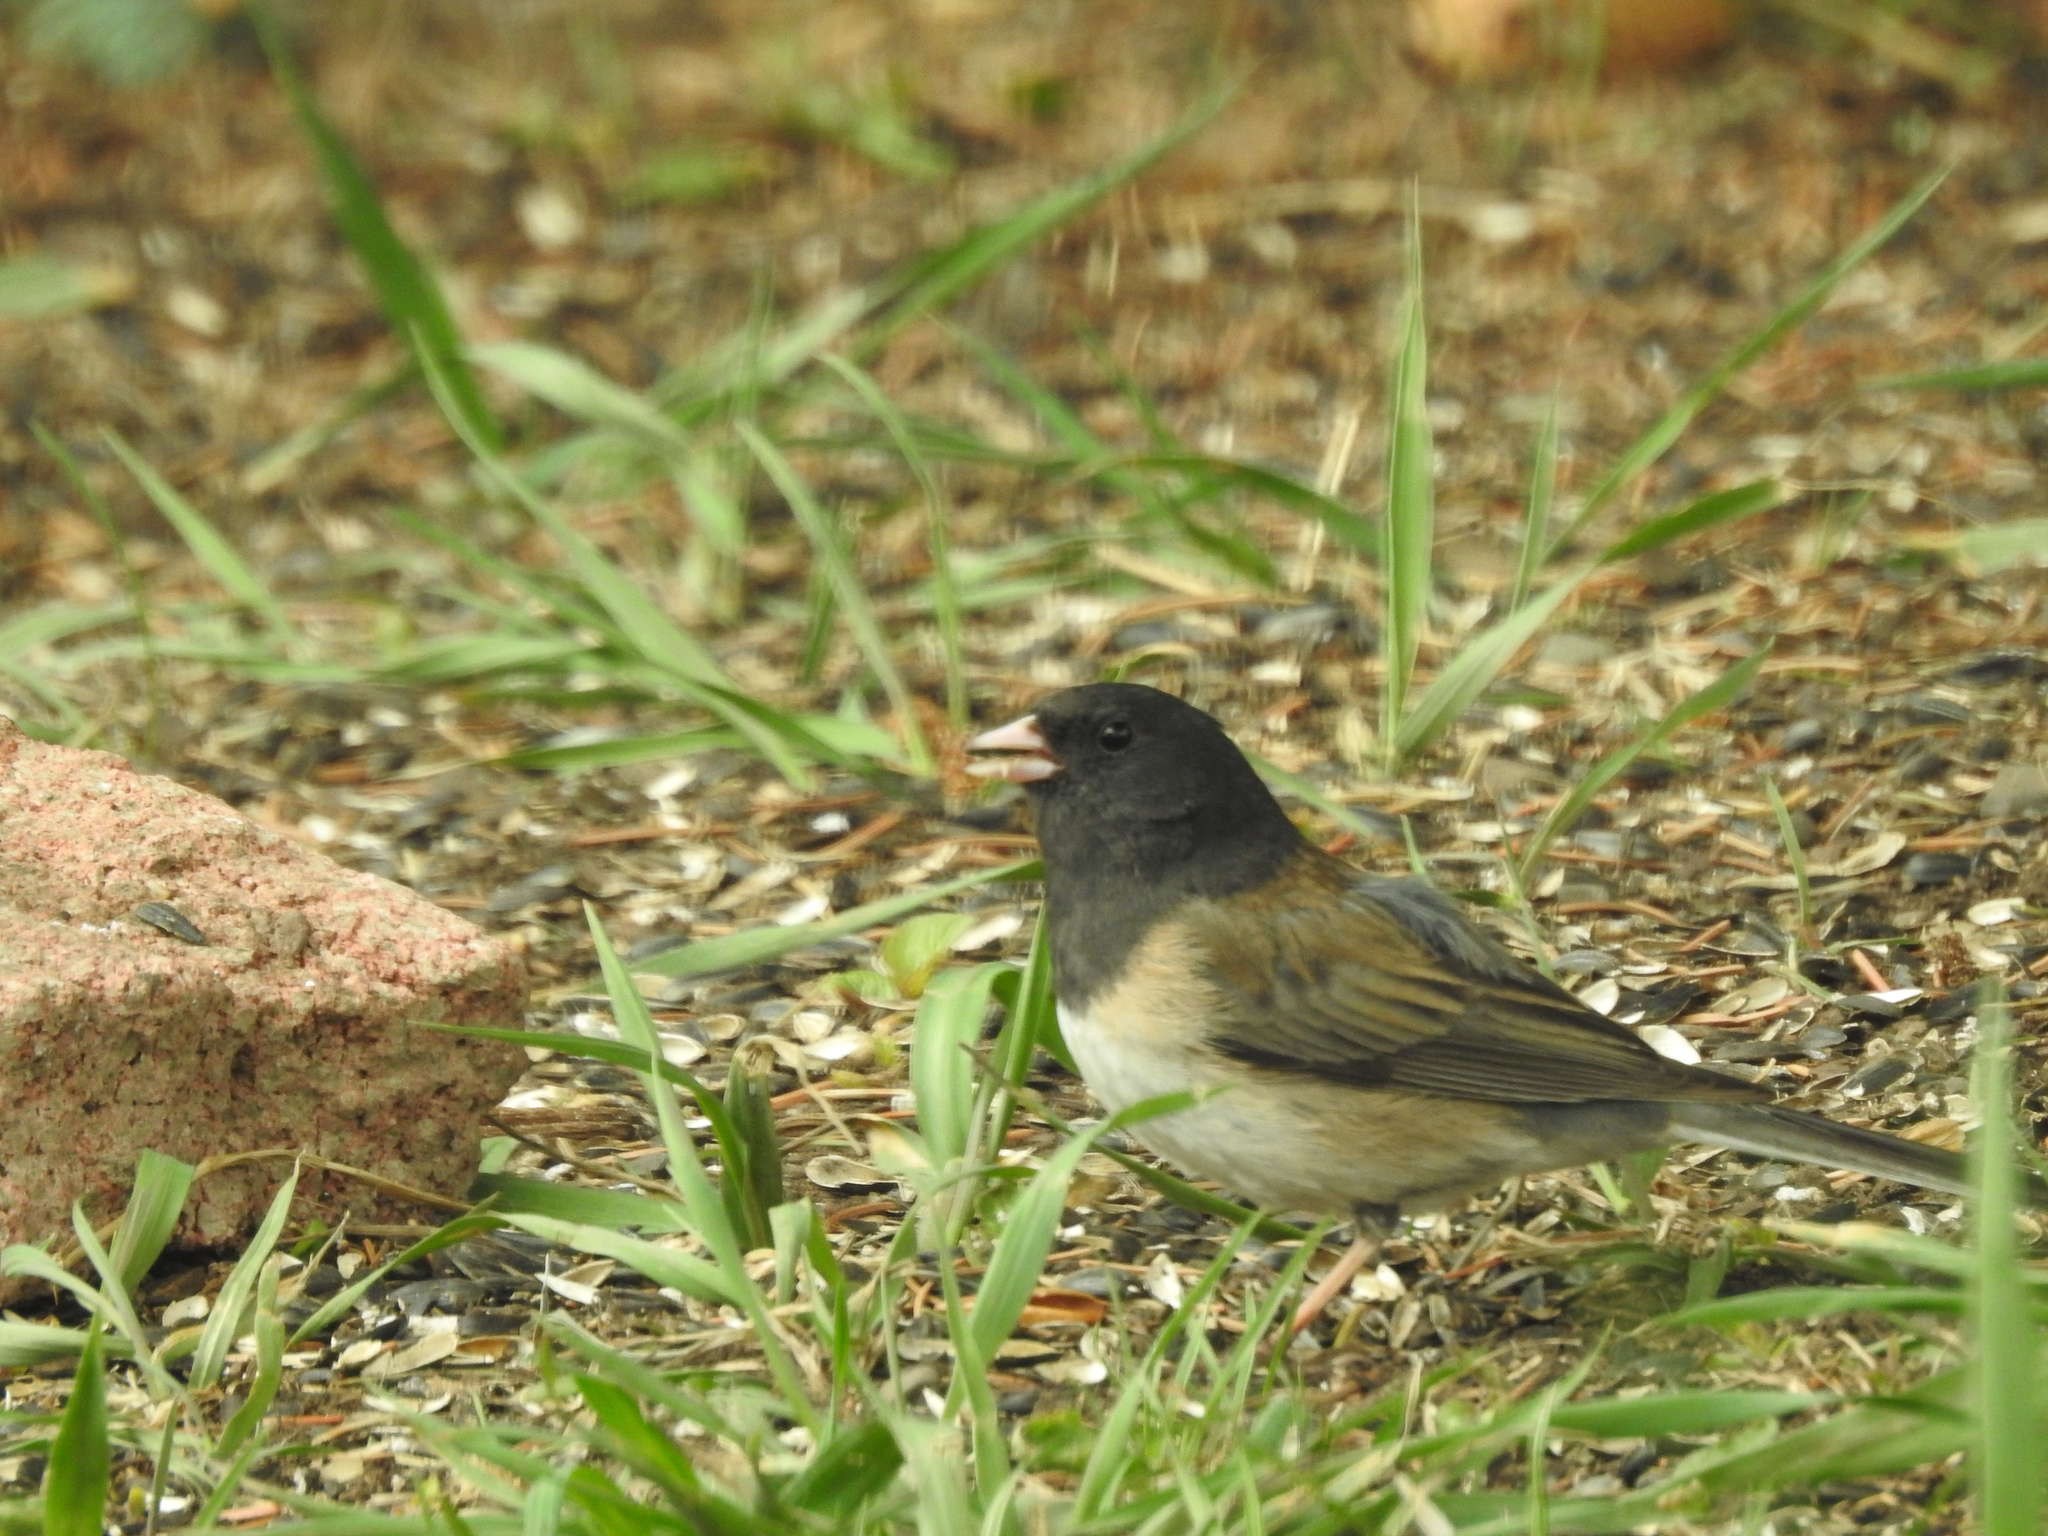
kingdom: Animalia
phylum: Chordata
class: Aves
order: Passeriformes
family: Passerellidae
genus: Junco
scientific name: Junco hyemalis
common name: Dark-eyed junco
